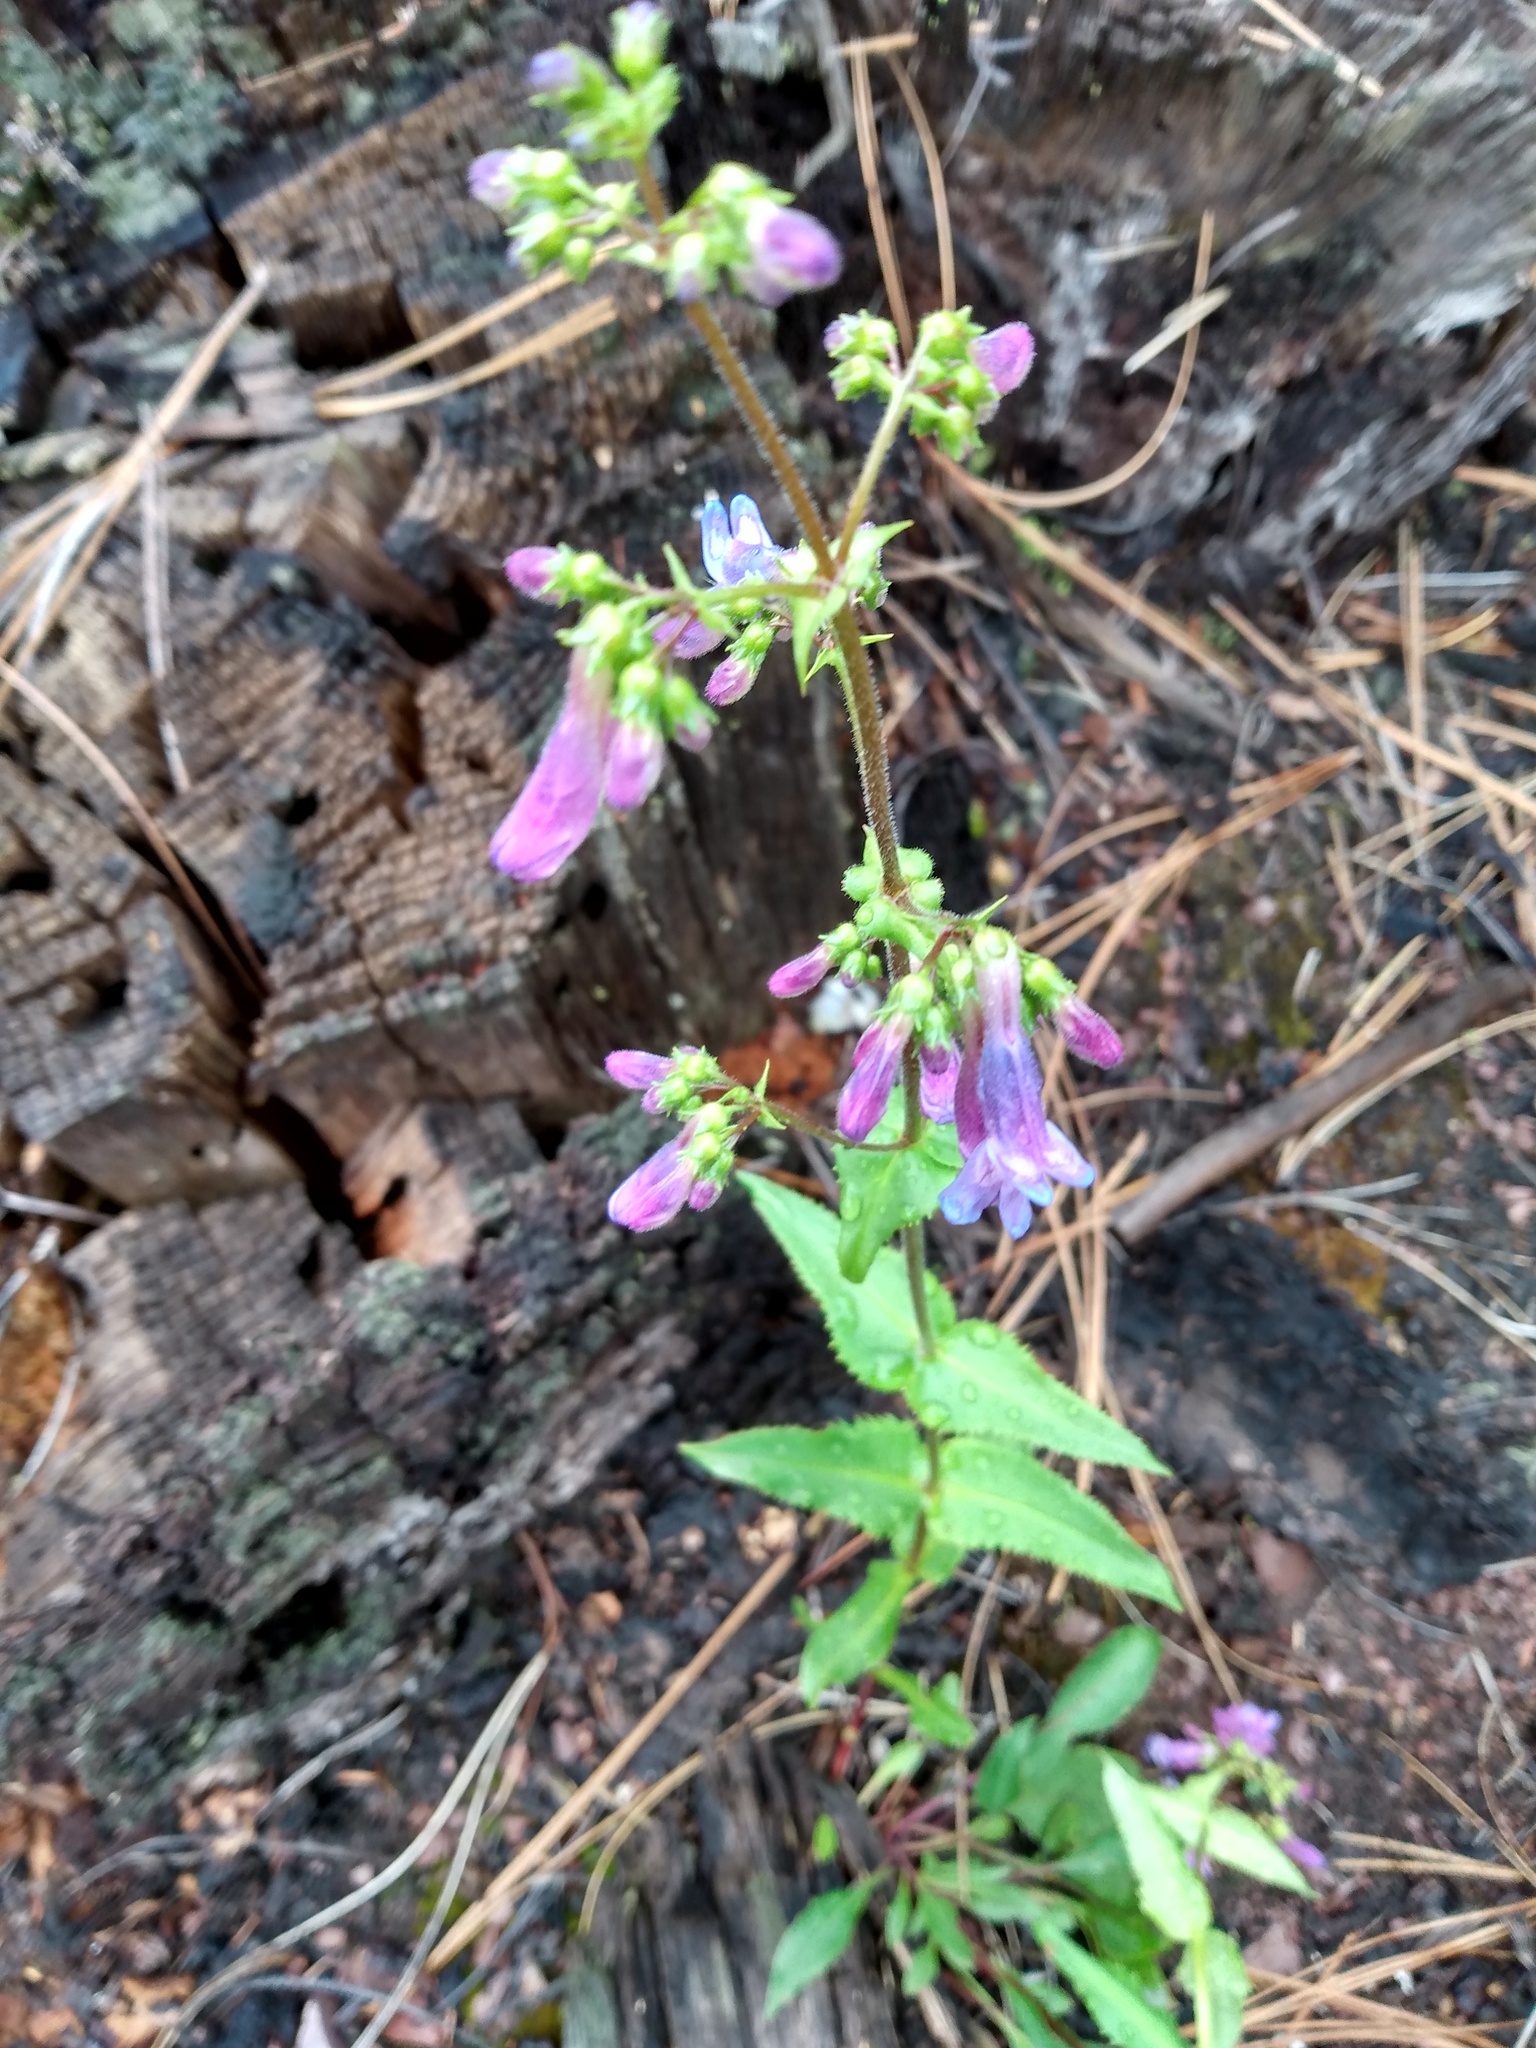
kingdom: Plantae
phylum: Tracheophyta
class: Magnoliopsida
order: Lamiales
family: Plantaginaceae
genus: Penstemon
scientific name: Penstemon wilcoxii
